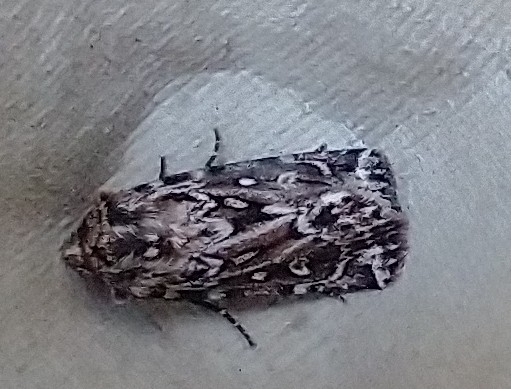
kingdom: Animalia
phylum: Arthropoda
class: Insecta
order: Lepidoptera
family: Noctuidae
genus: Lycophotia
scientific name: Lycophotia porphyrea
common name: True lover's knot
